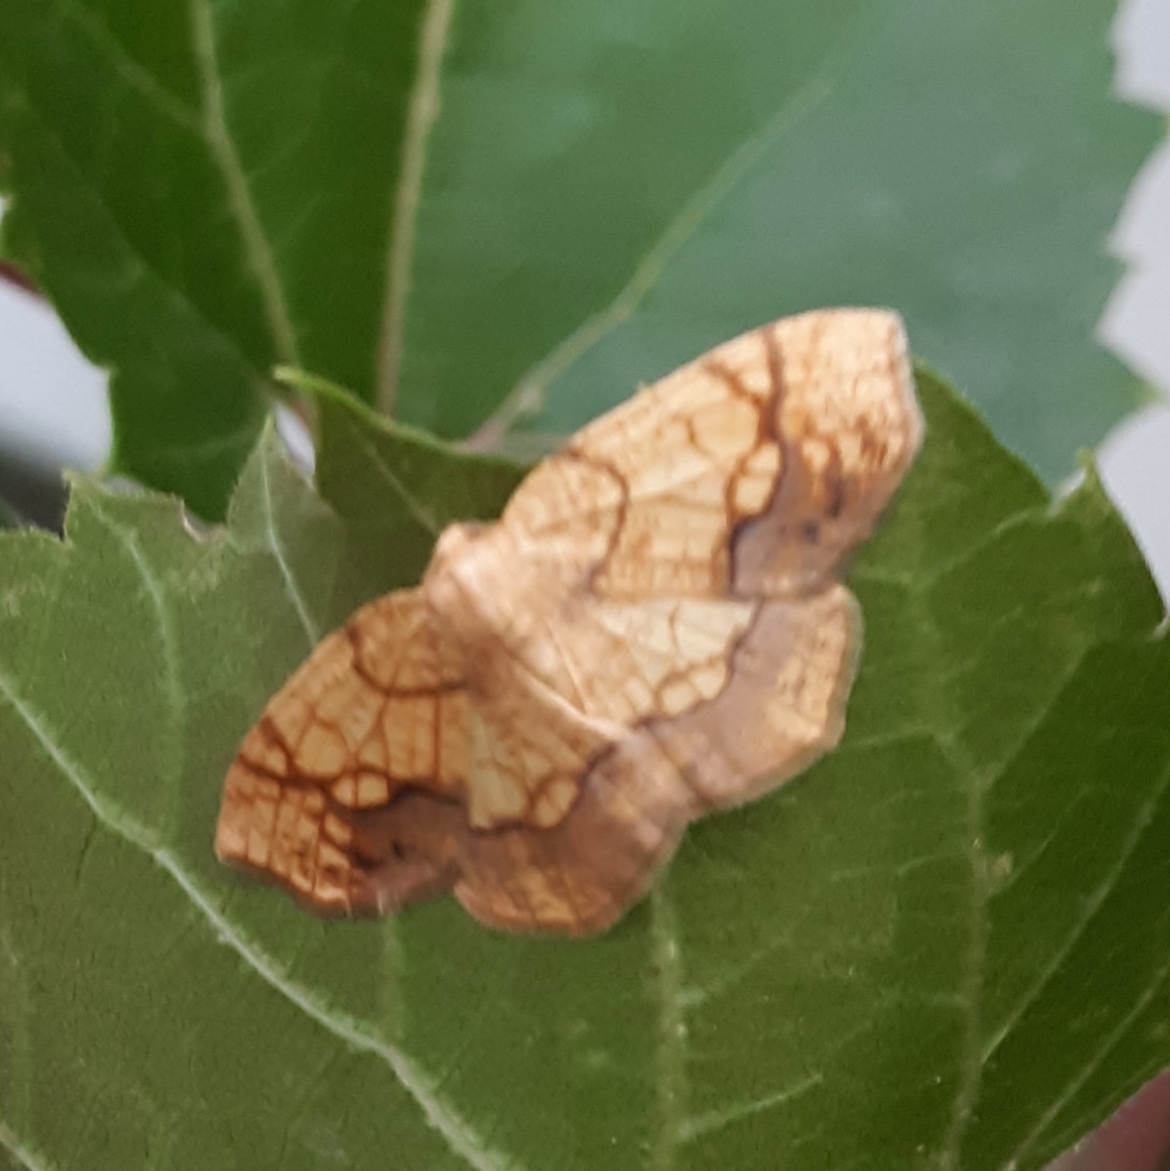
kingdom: Animalia
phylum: Arthropoda
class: Insecta
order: Lepidoptera
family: Geometridae
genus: Nematocampa
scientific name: Nematocampa resistaria
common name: Horned spanworm moth
